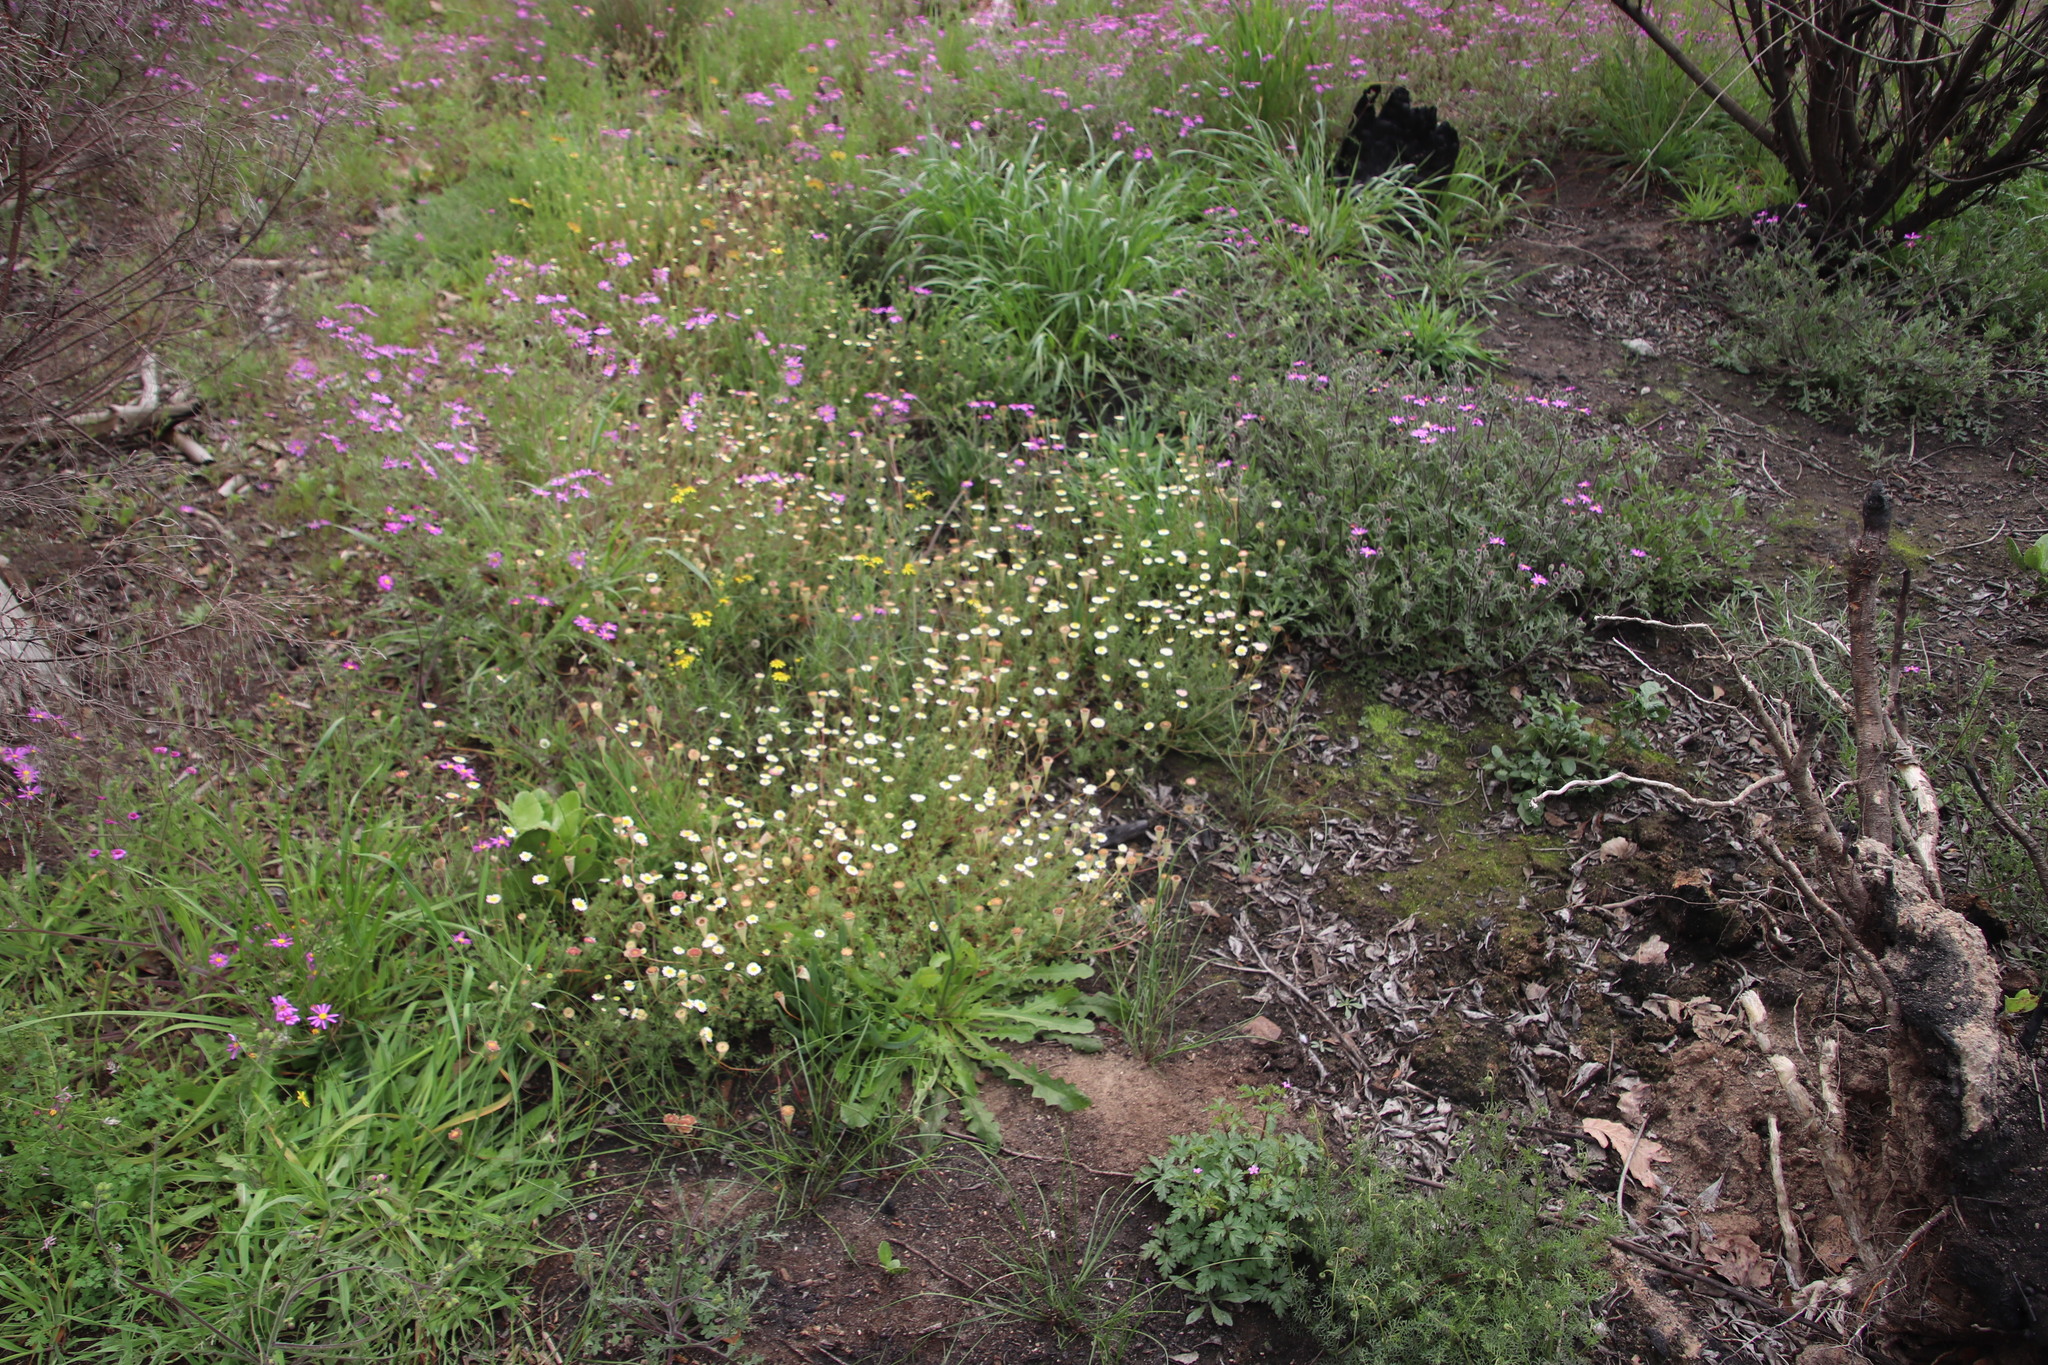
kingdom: Plantae
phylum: Tracheophyta
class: Magnoliopsida
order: Asterales
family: Asteraceae
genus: Cotula
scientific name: Cotula turbinata
